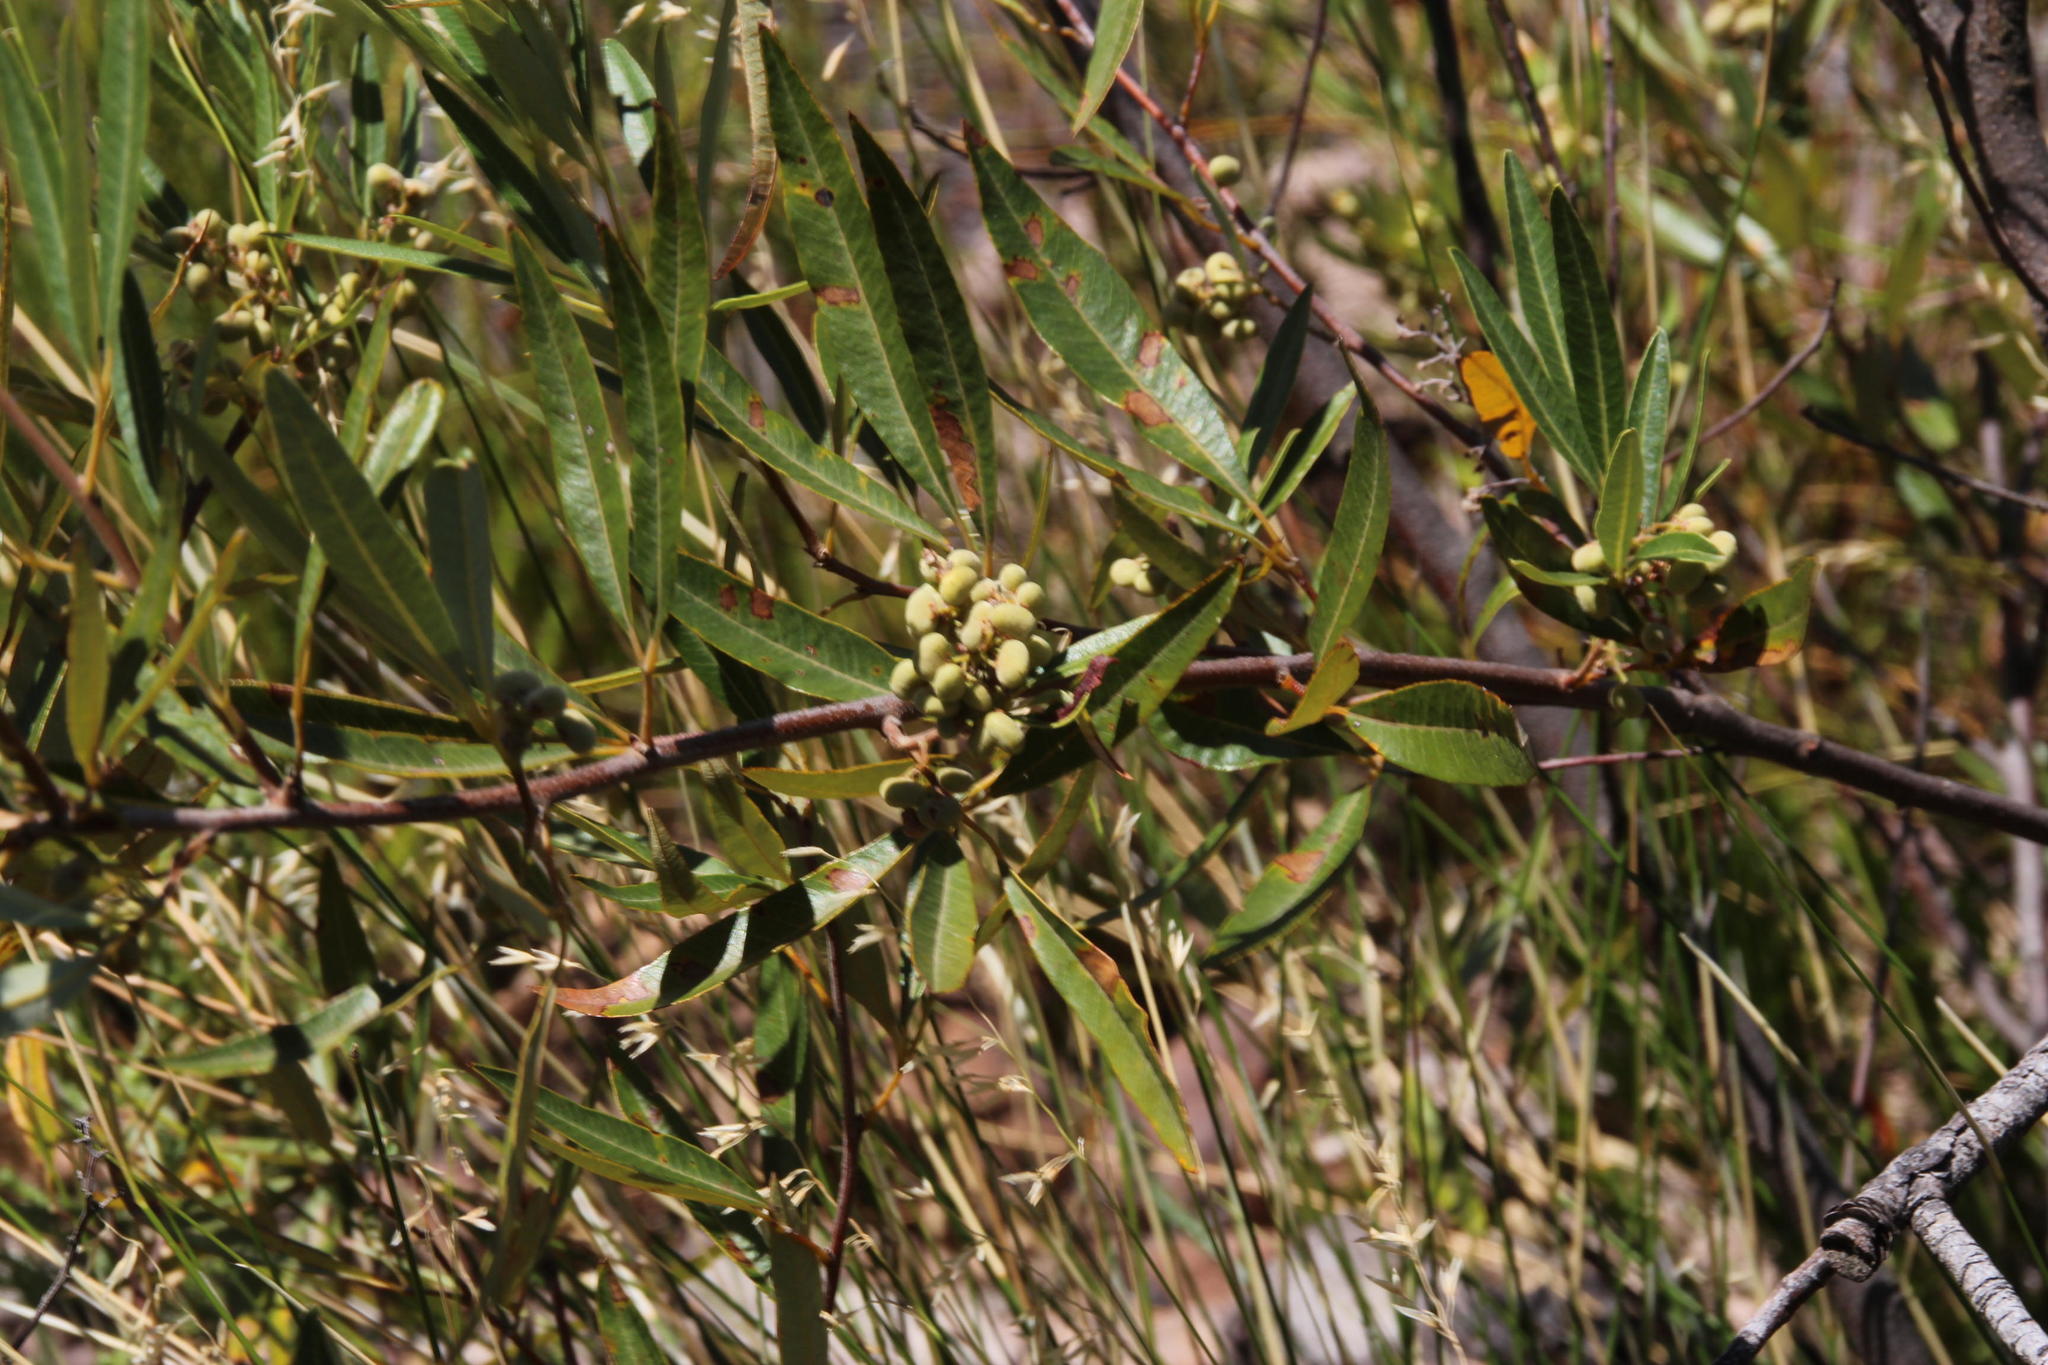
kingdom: Plantae
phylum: Tracheophyta
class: Magnoliopsida
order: Sapindales
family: Anacardiaceae
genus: Searsia
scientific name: Searsia angustifolia
